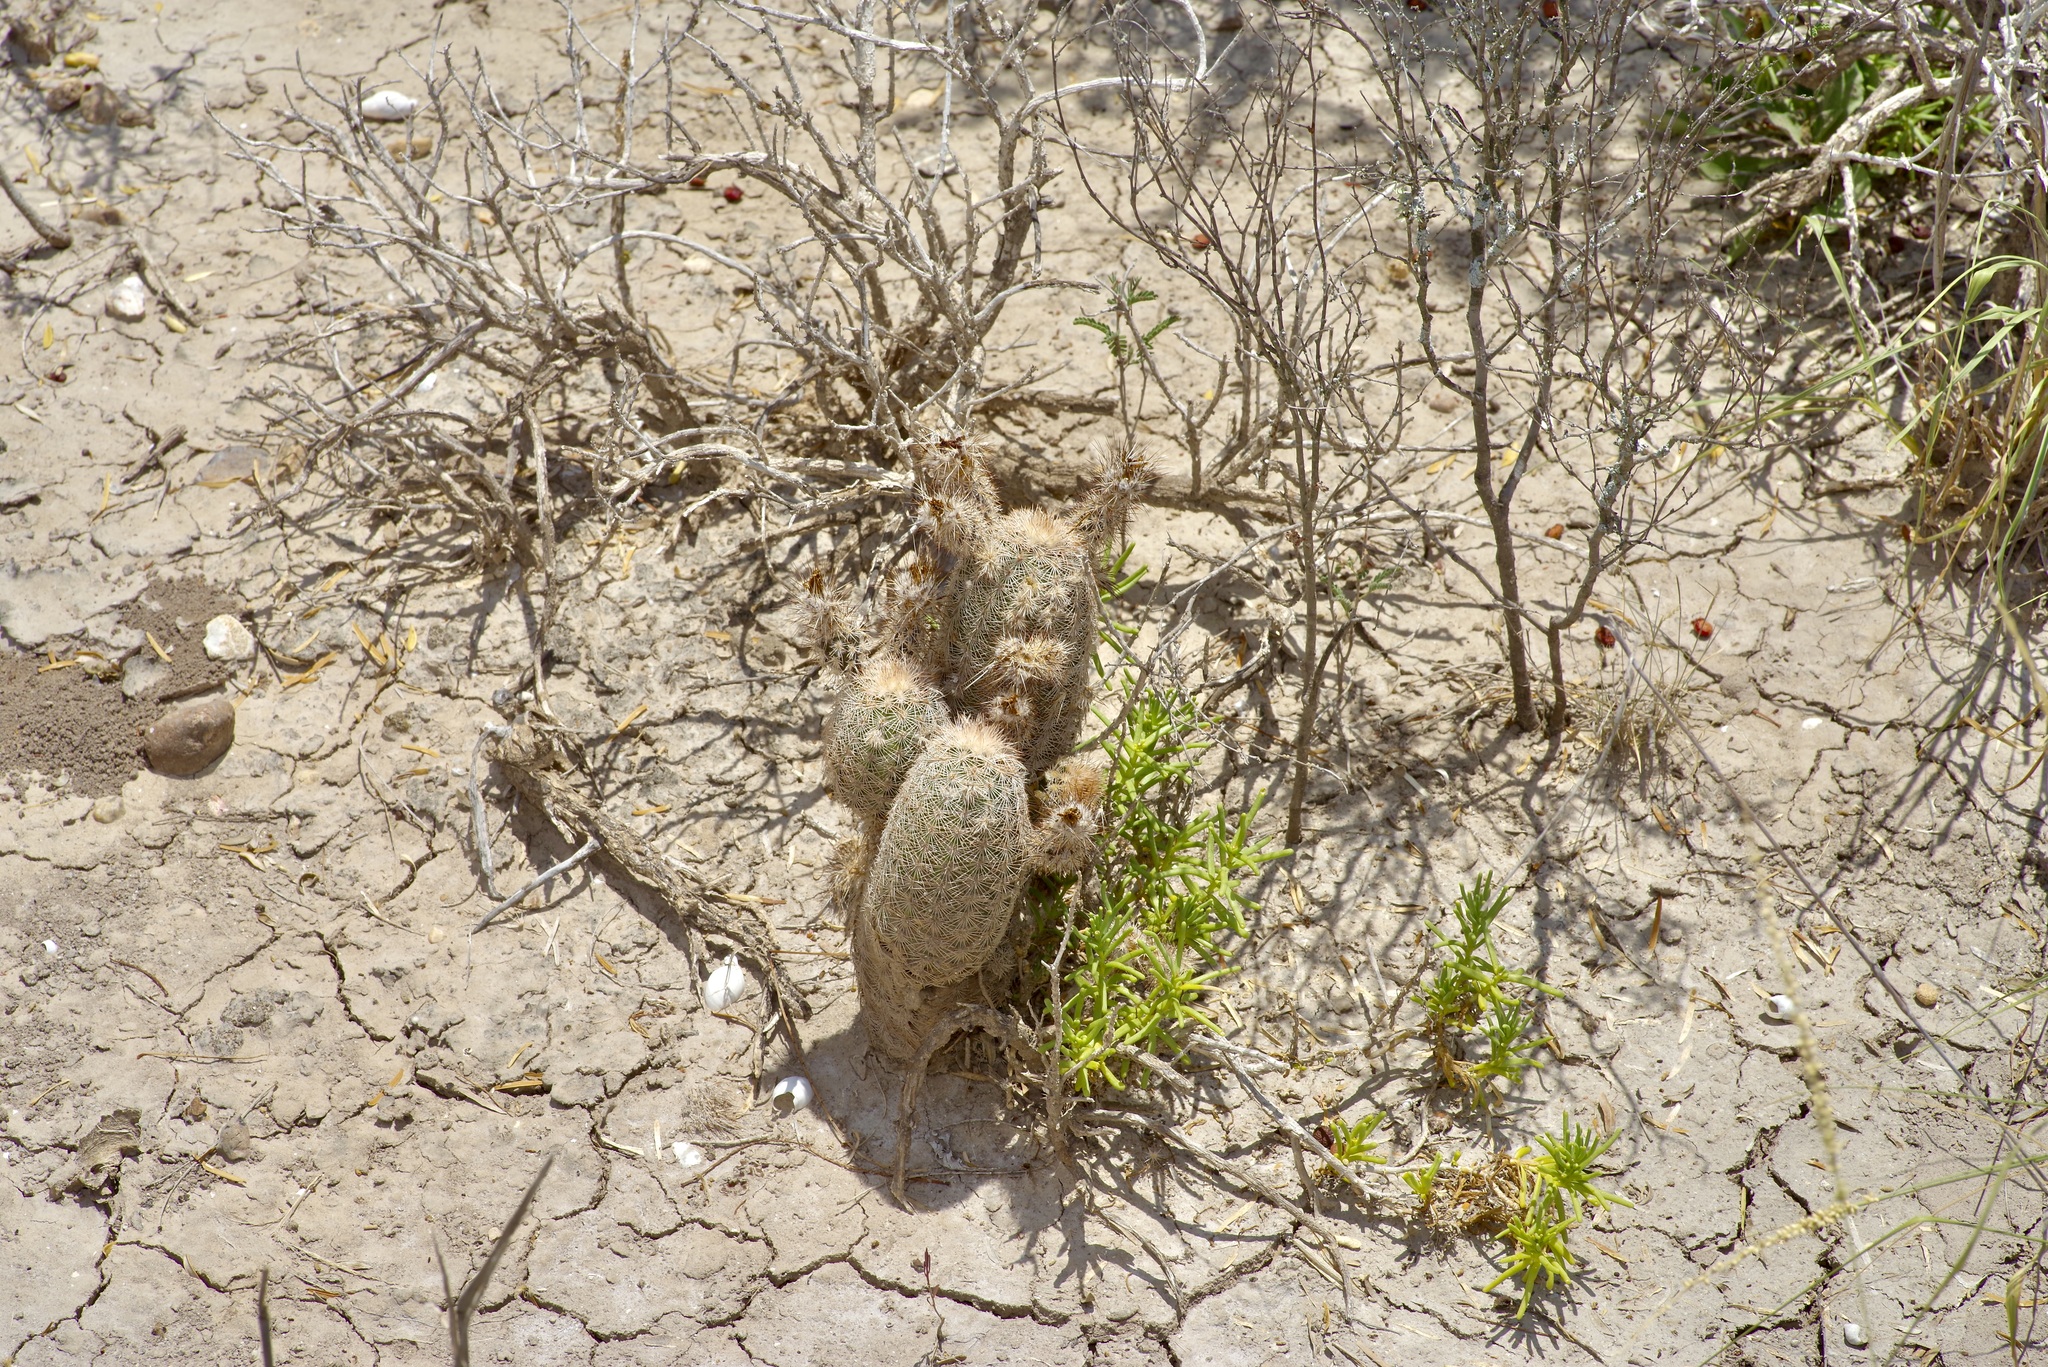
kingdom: Plantae
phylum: Tracheophyta
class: Magnoliopsida
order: Caryophyllales
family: Cactaceae
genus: Echinocereus
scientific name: Echinocereus reichenbachii
